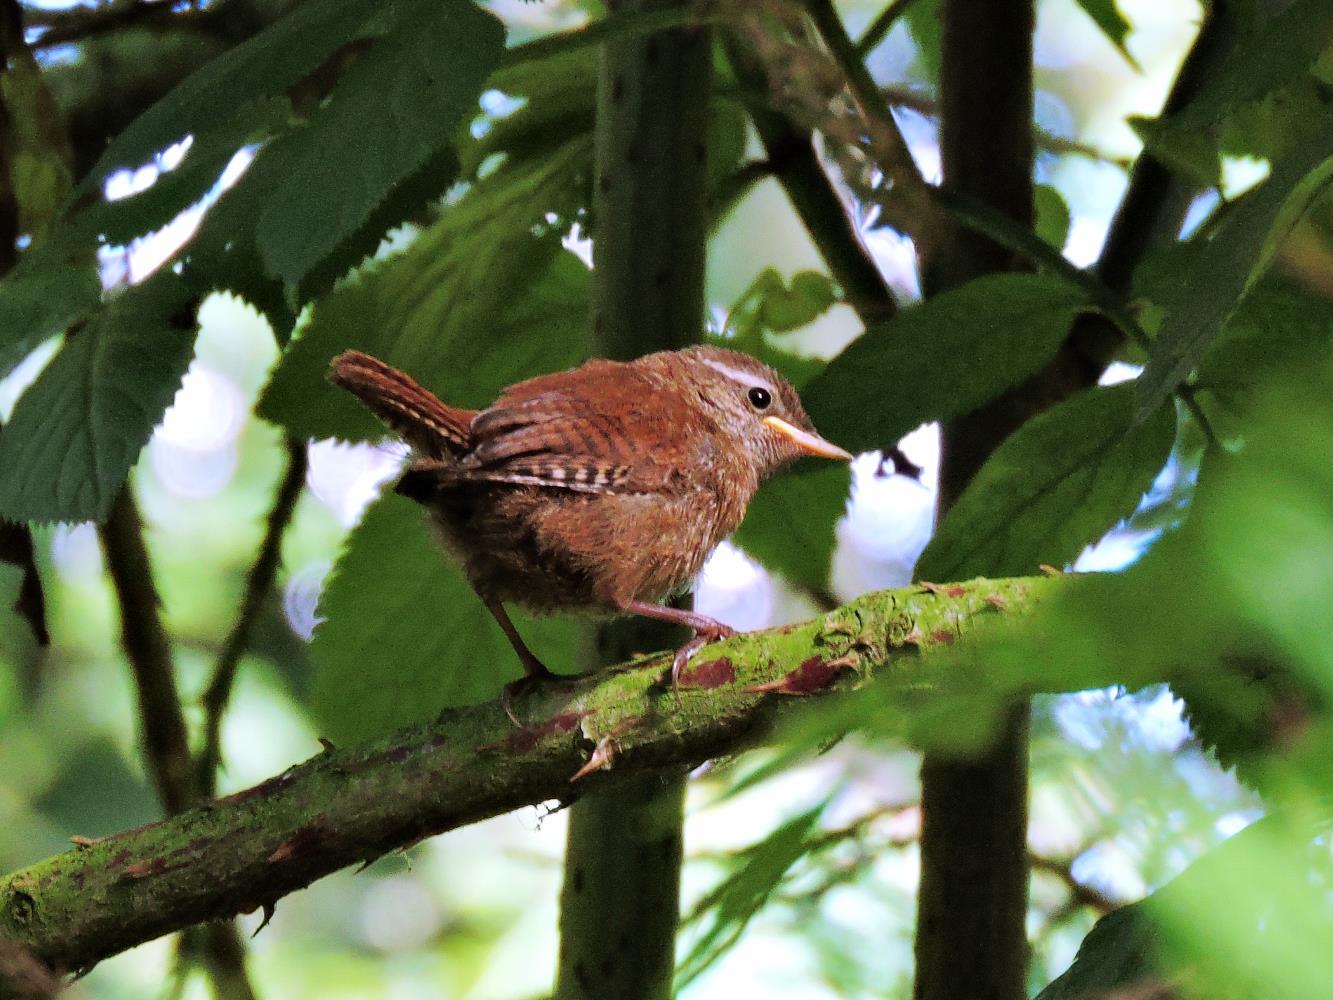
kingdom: Animalia
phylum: Chordata
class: Aves
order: Passeriformes
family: Troglodytidae
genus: Troglodytes
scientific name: Troglodytes troglodytes
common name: Eurasian wren
